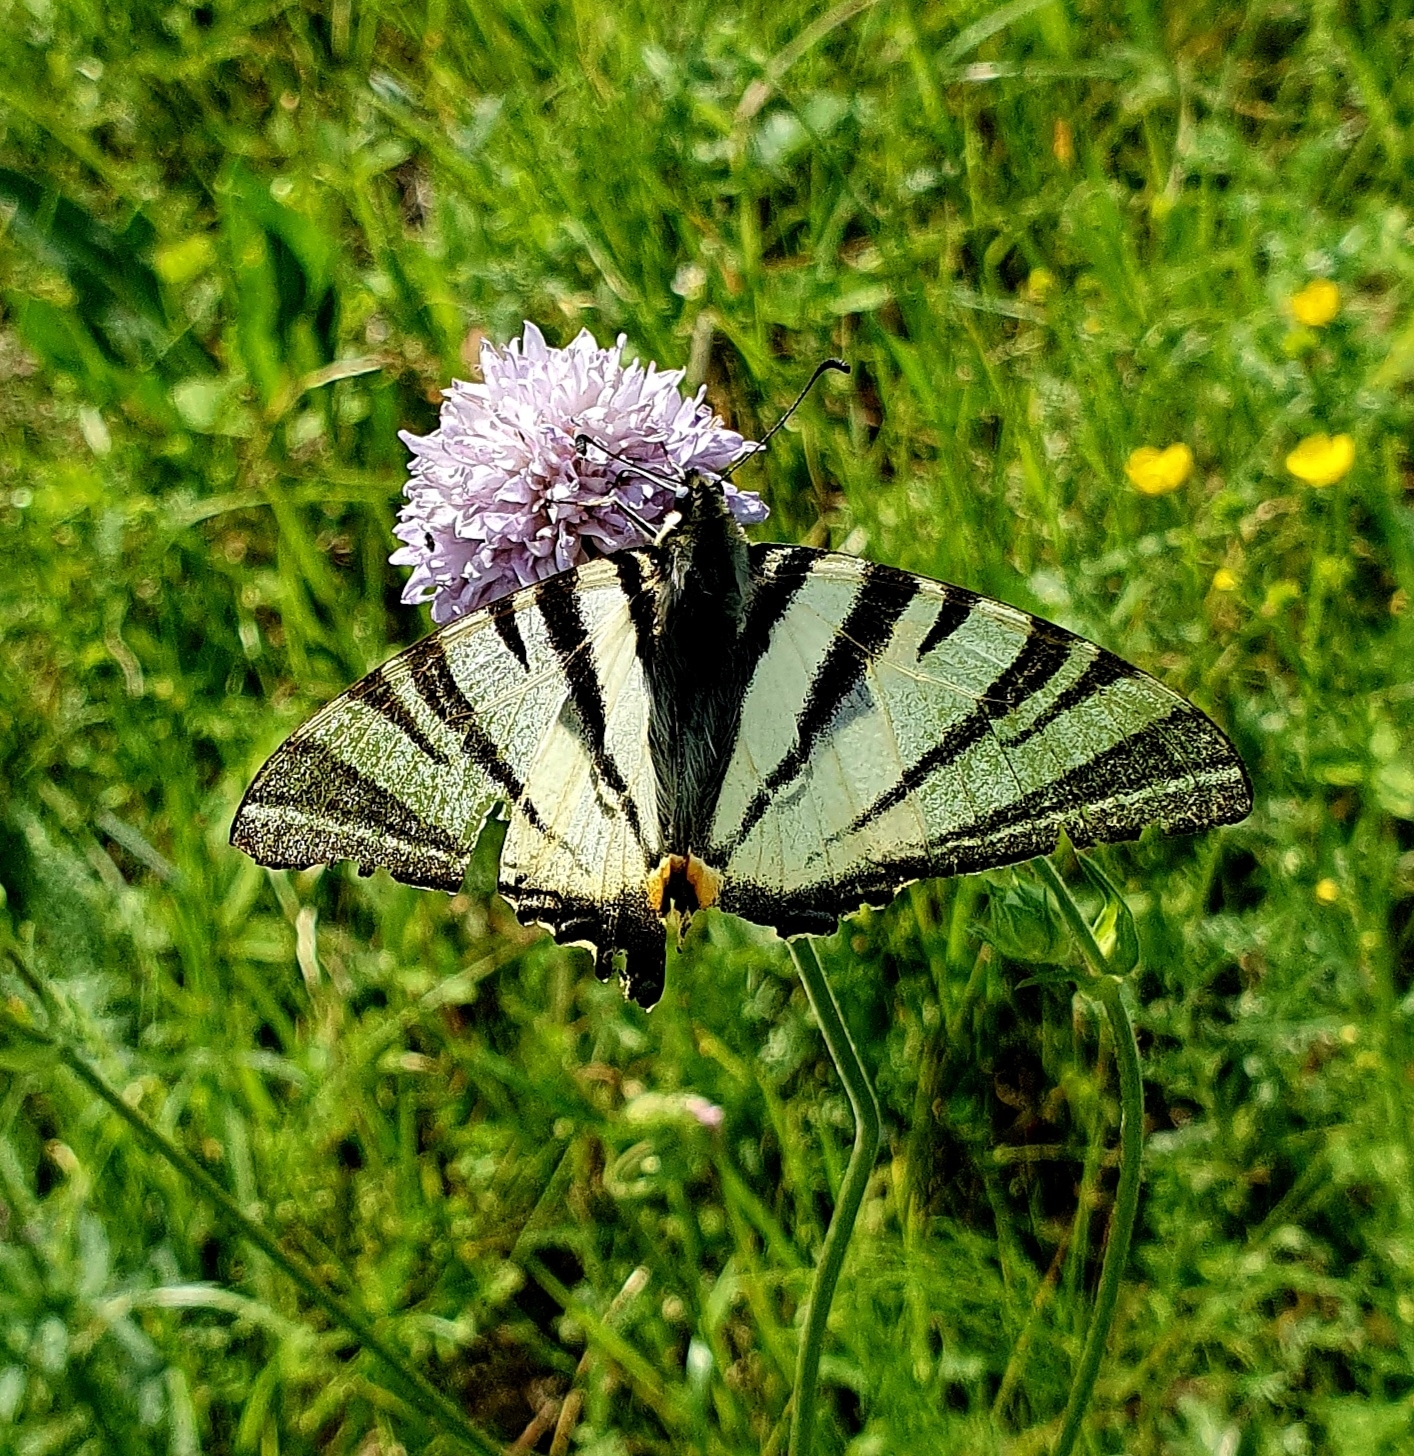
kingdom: Animalia
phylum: Arthropoda
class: Insecta
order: Lepidoptera
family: Papilionidae
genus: Iphiclides
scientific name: Iphiclides podalirius
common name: Scarce swallowtail
